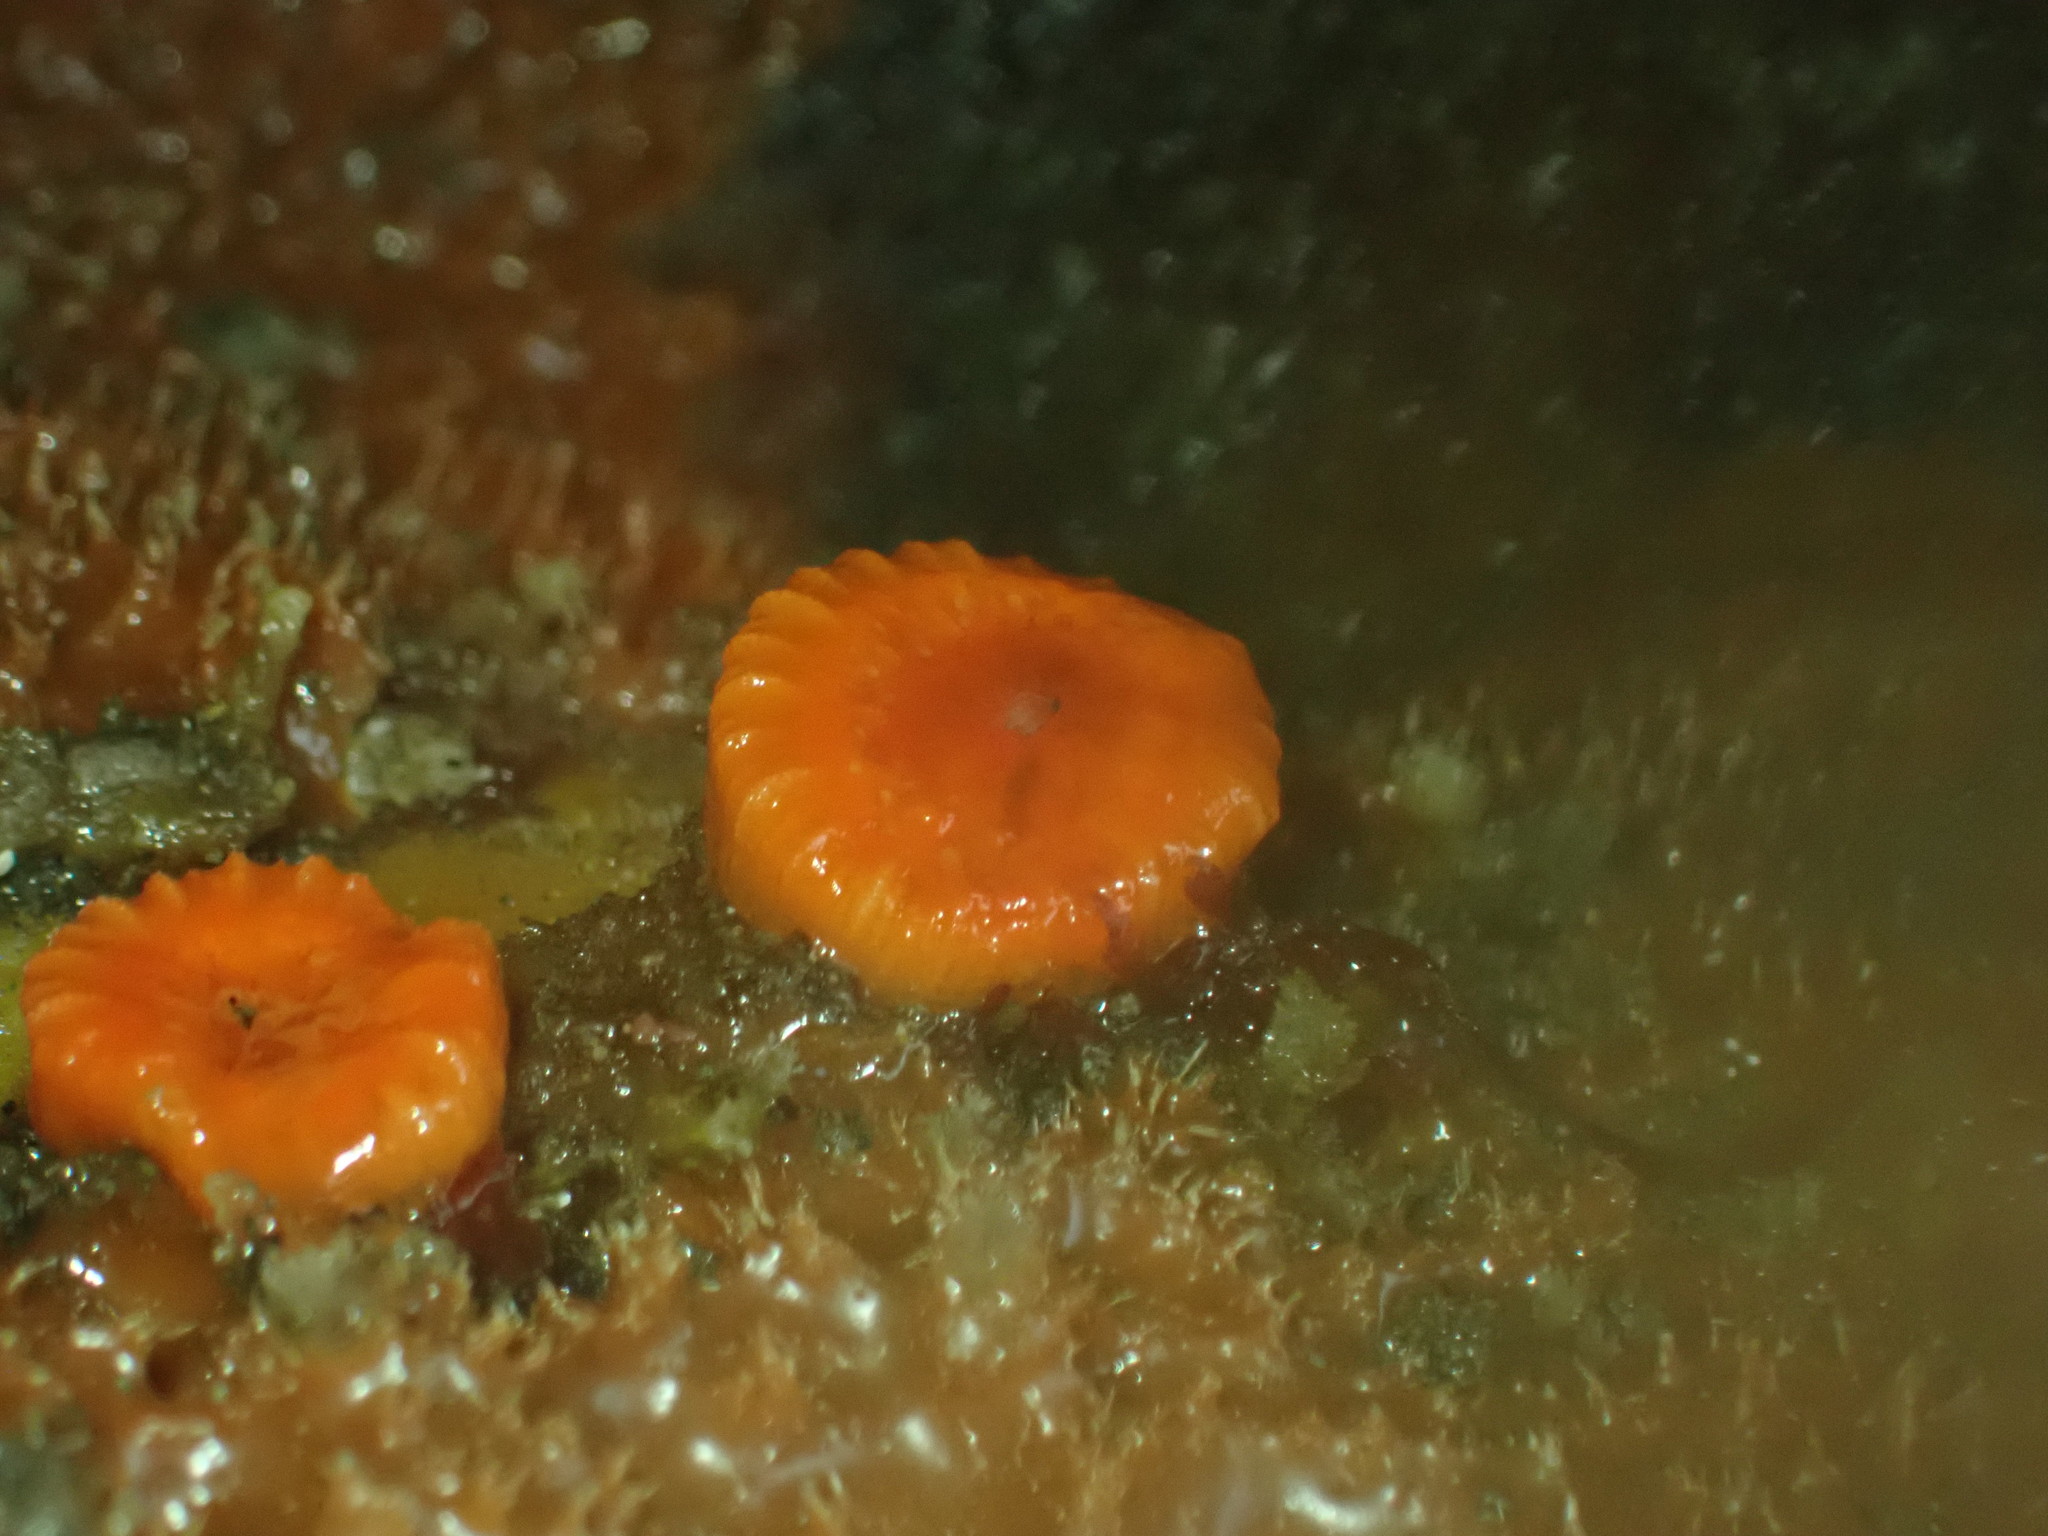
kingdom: Animalia
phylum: Cnidaria
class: Anthozoa
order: Scleractinia
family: Dendrophylliidae
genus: Balanophyllia
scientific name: Balanophyllia elegans
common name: Orange stony coral
